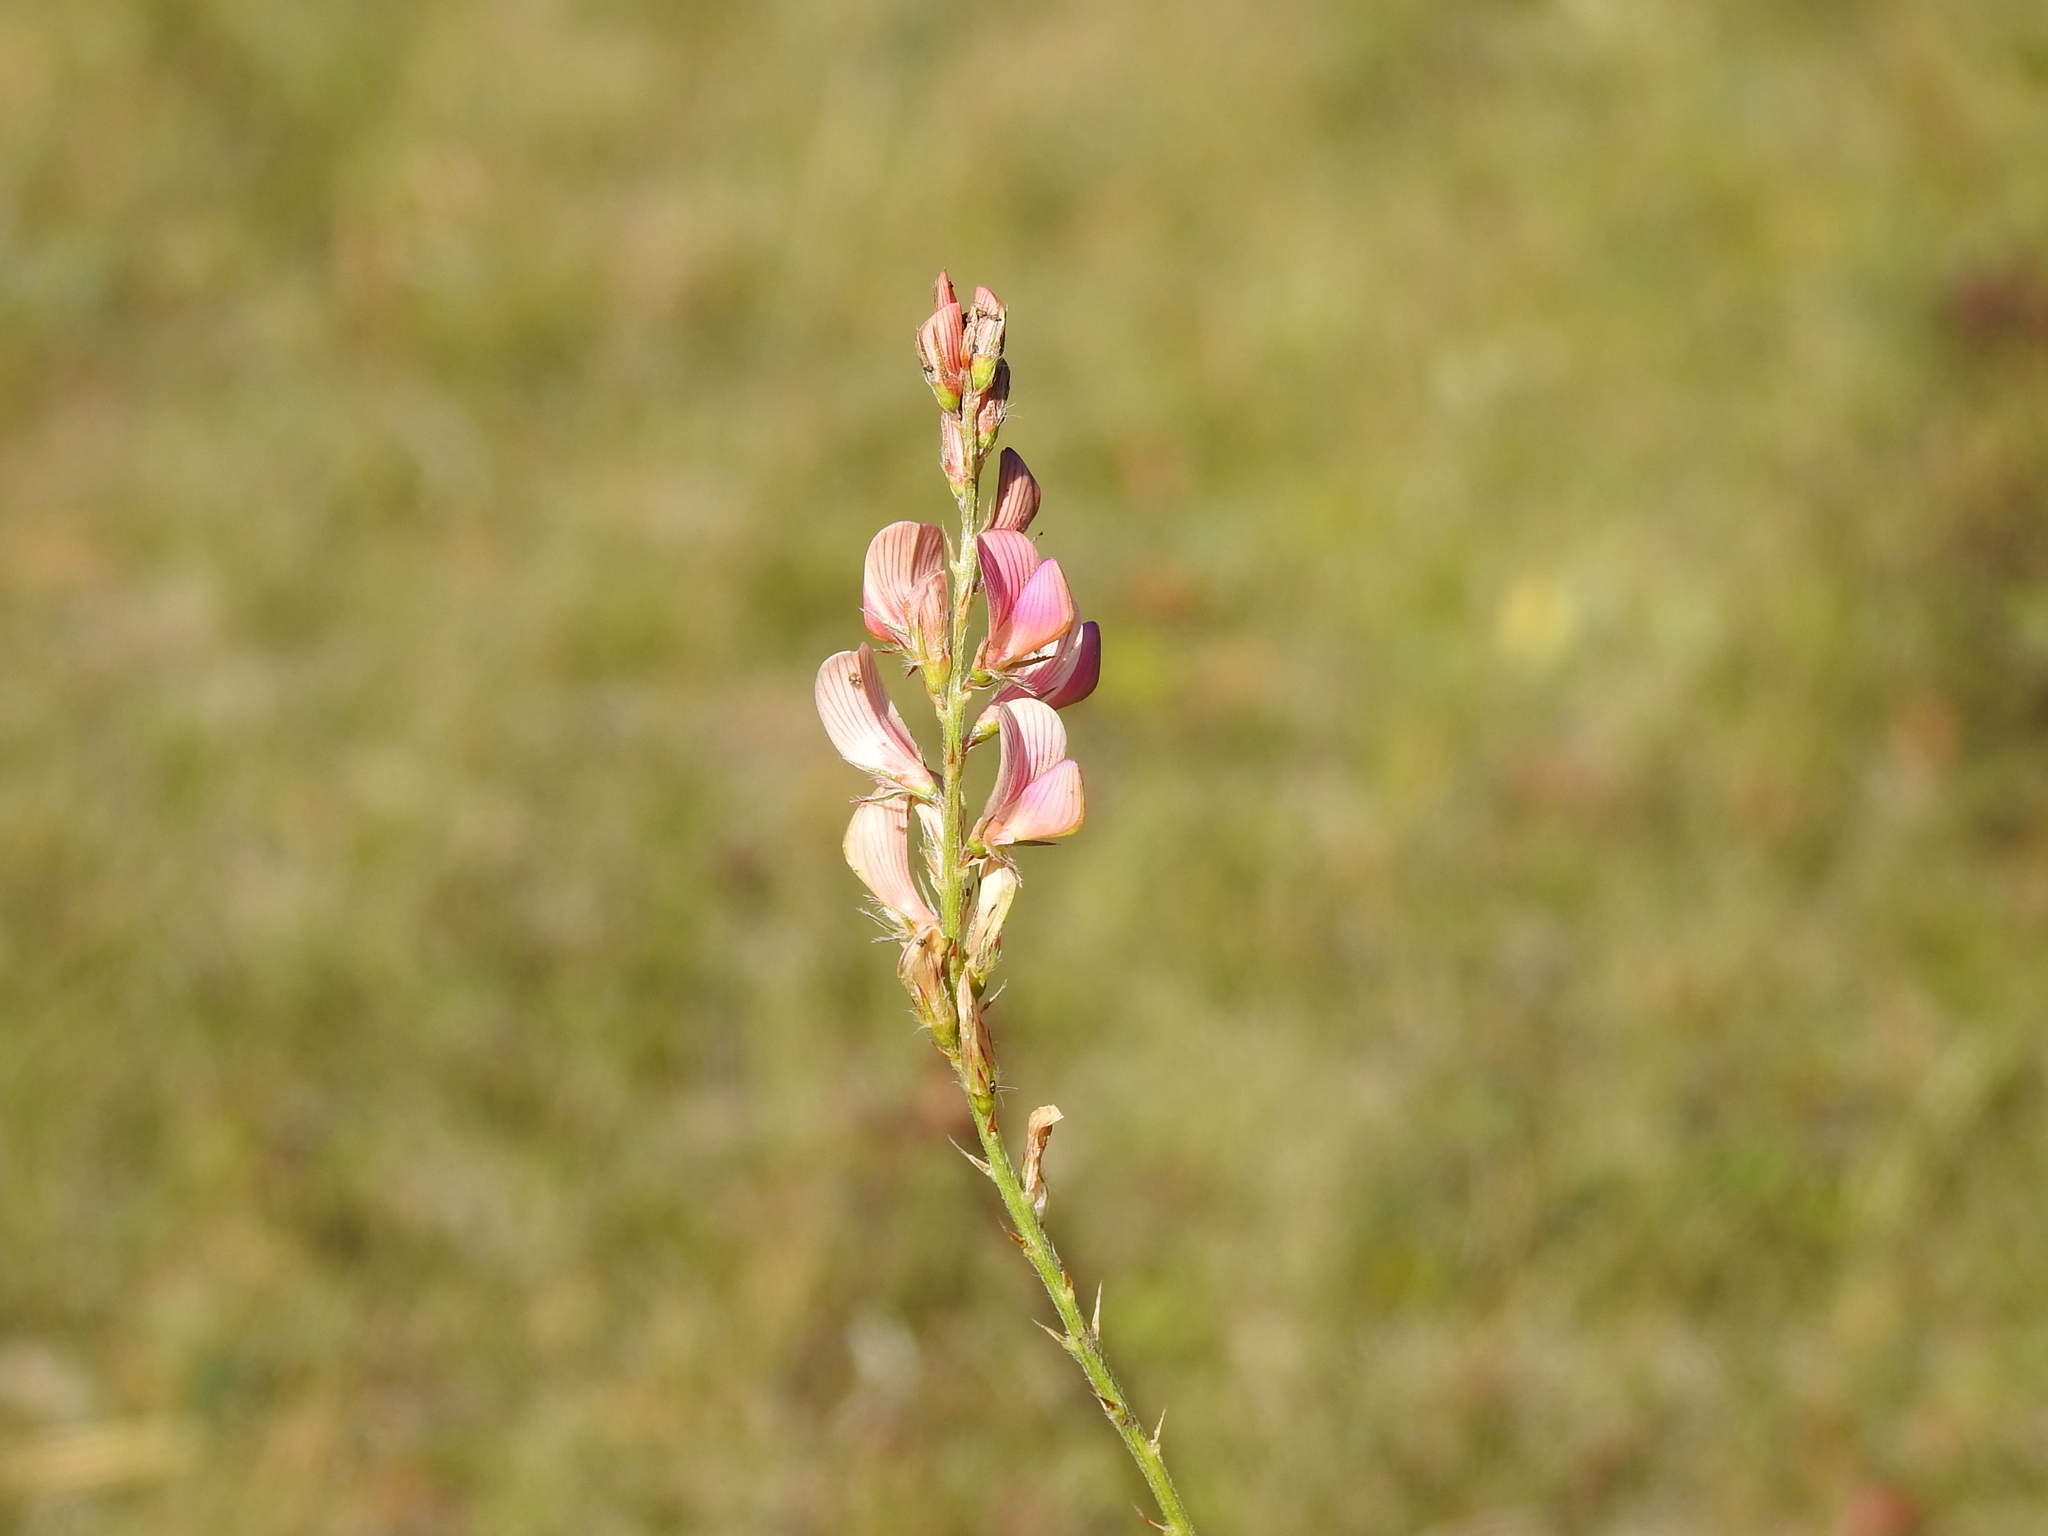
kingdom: Plantae
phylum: Tracheophyta
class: Magnoliopsida
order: Fabales
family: Fabaceae
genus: Onobrychis
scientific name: Onobrychis viciifolia
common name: Sainfoin
